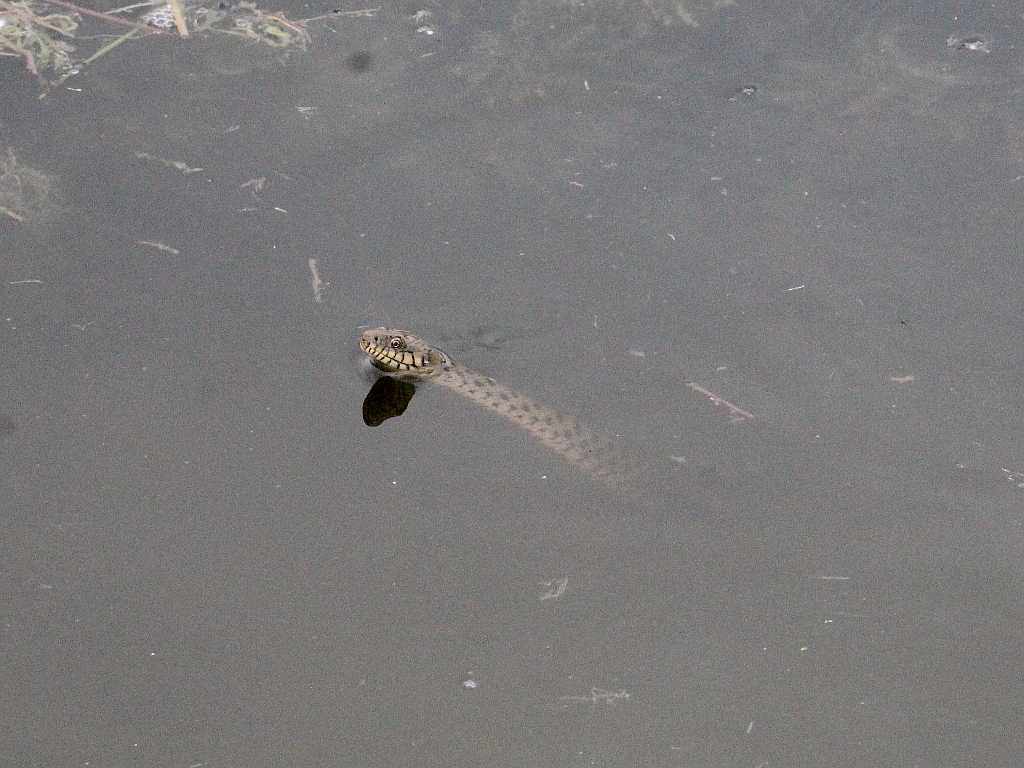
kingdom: Animalia
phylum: Chordata
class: Squamata
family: Colubridae
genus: Natrix
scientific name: Natrix tessellata
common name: Dice snake
